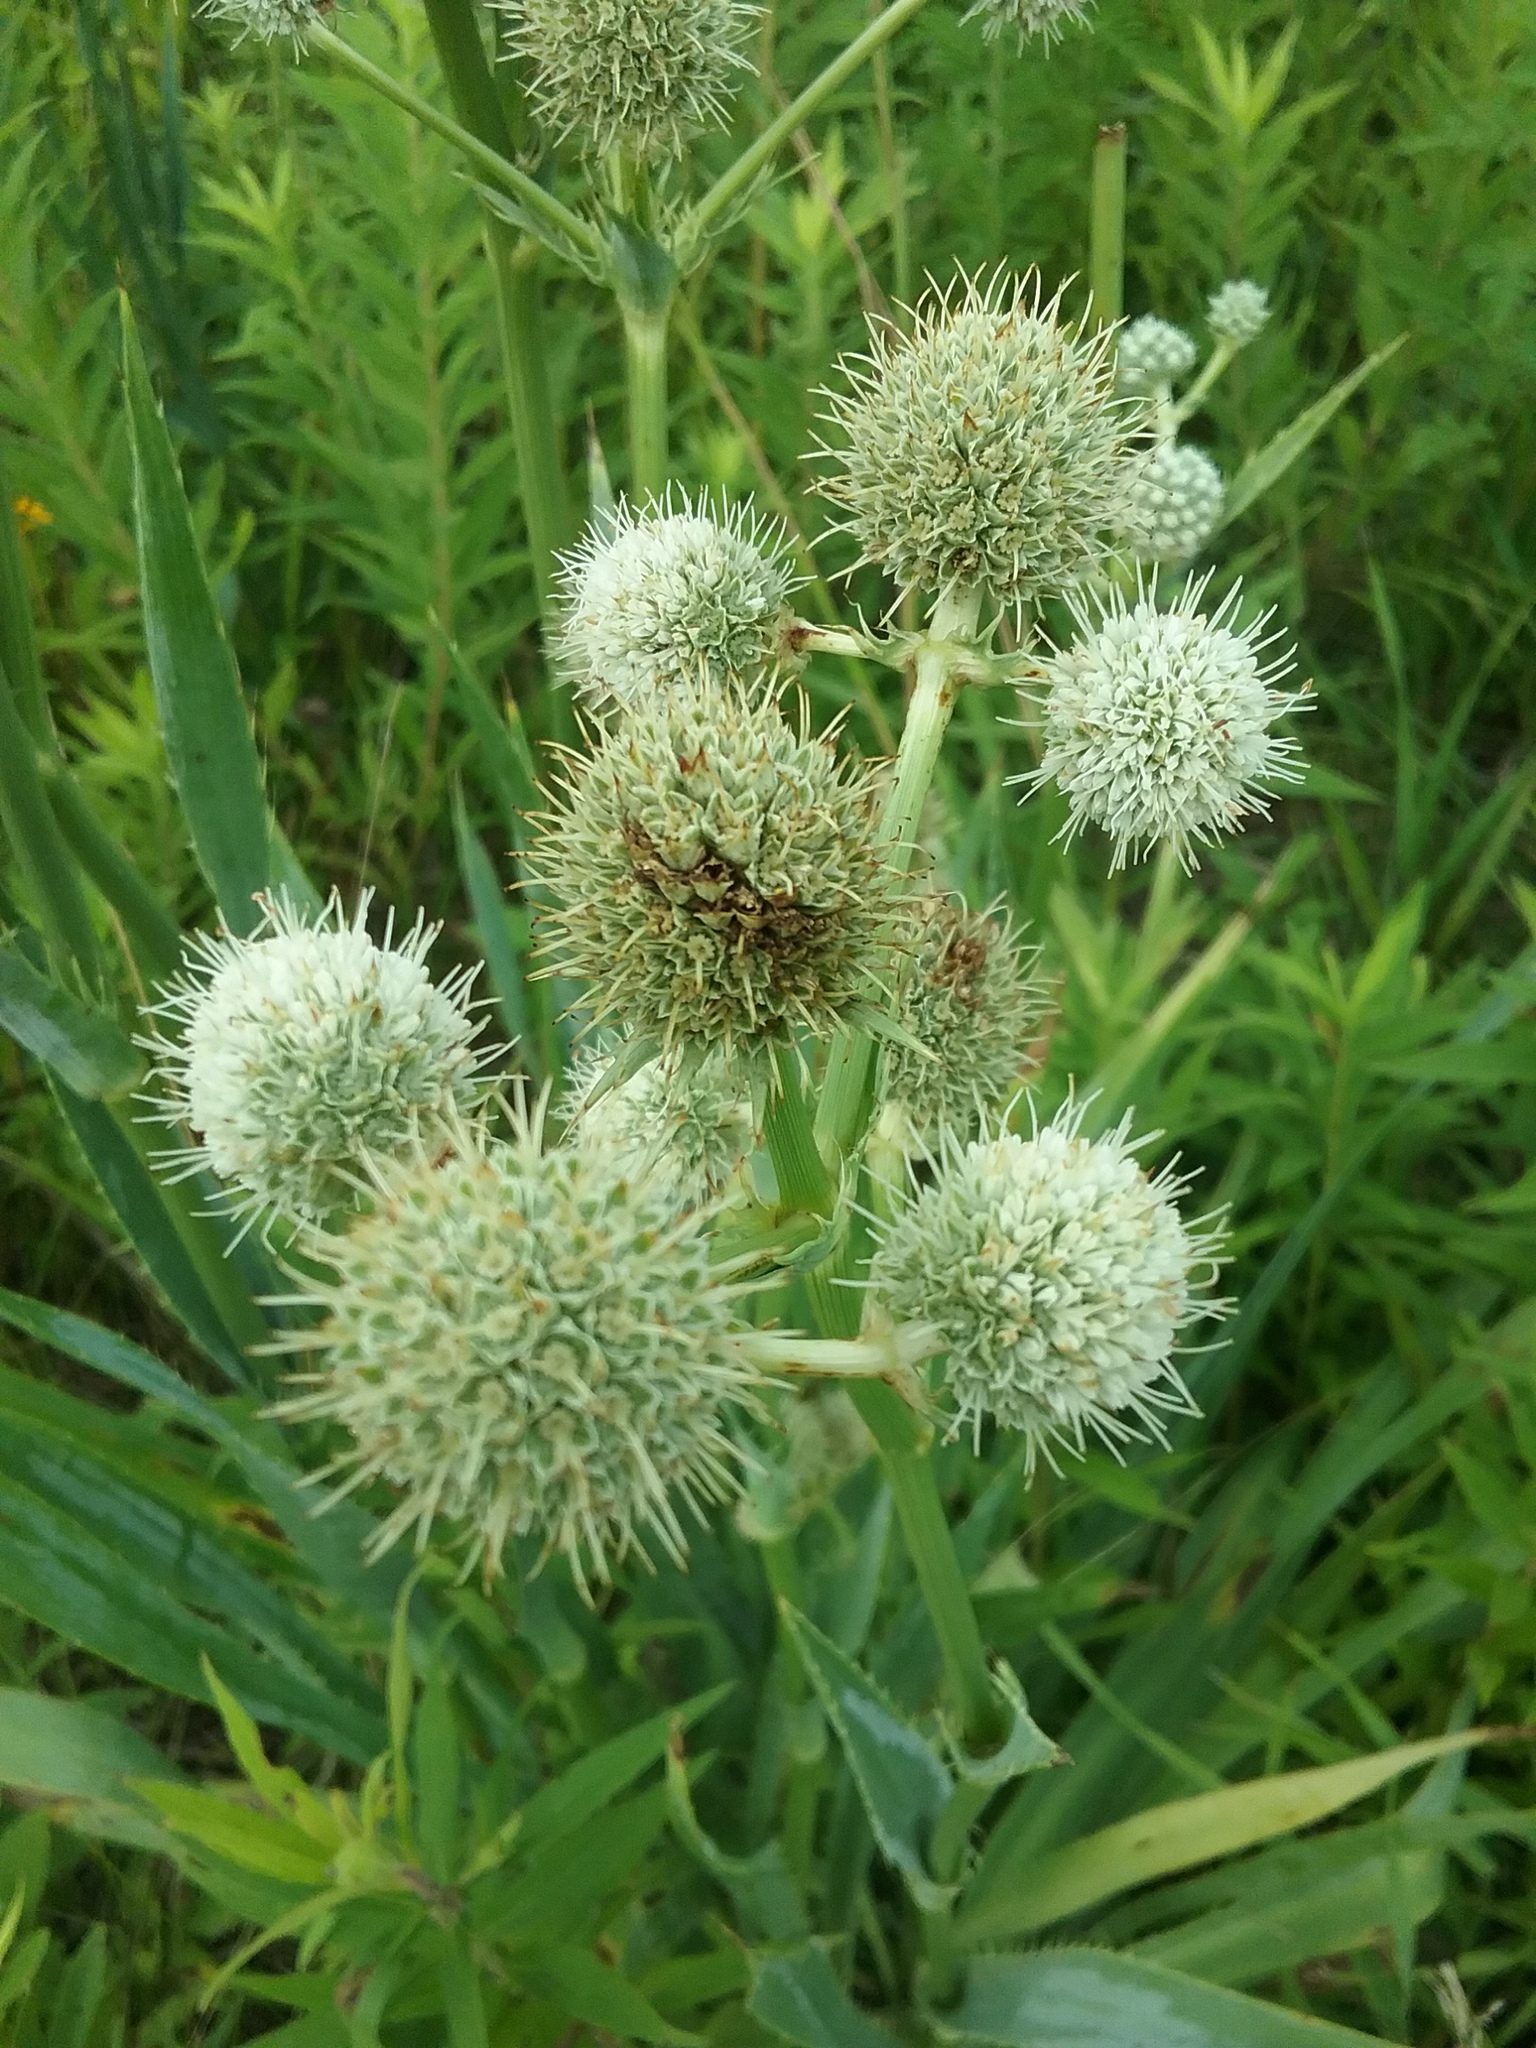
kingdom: Plantae
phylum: Tracheophyta
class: Magnoliopsida
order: Apiales
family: Apiaceae
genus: Eryngium
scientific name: Eryngium yuccifolium
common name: Button eryngo
